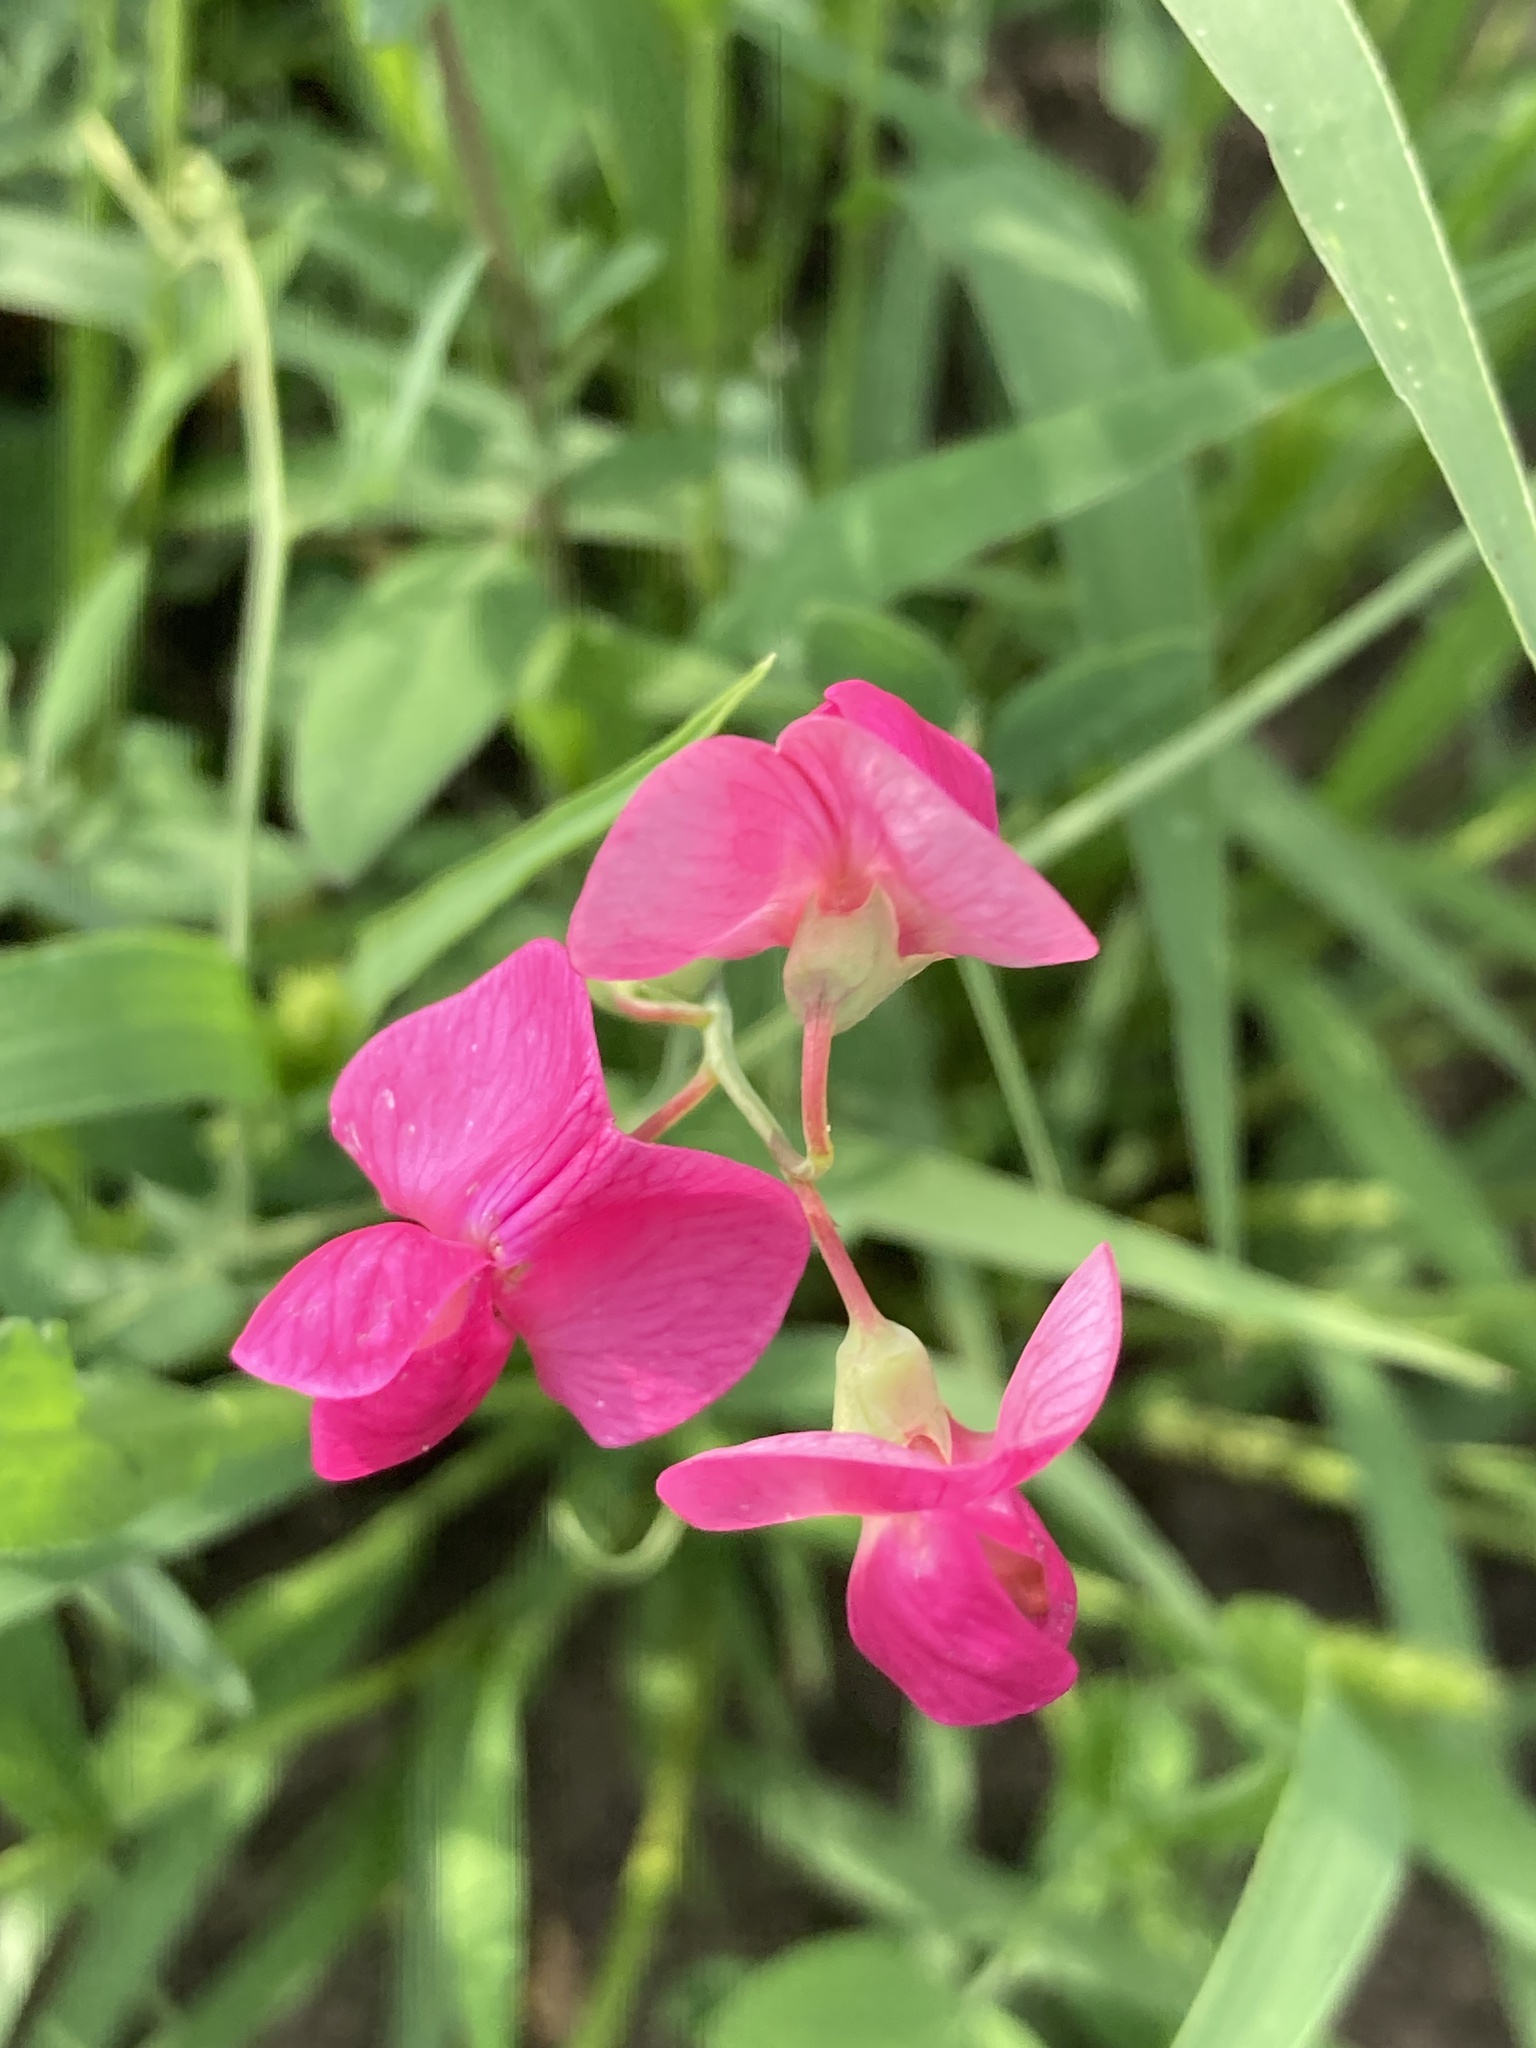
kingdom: Plantae
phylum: Tracheophyta
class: Magnoliopsida
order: Fabales
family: Fabaceae
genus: Lathyrus
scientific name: Lathyrus tuberosus
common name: Tuberous pea
